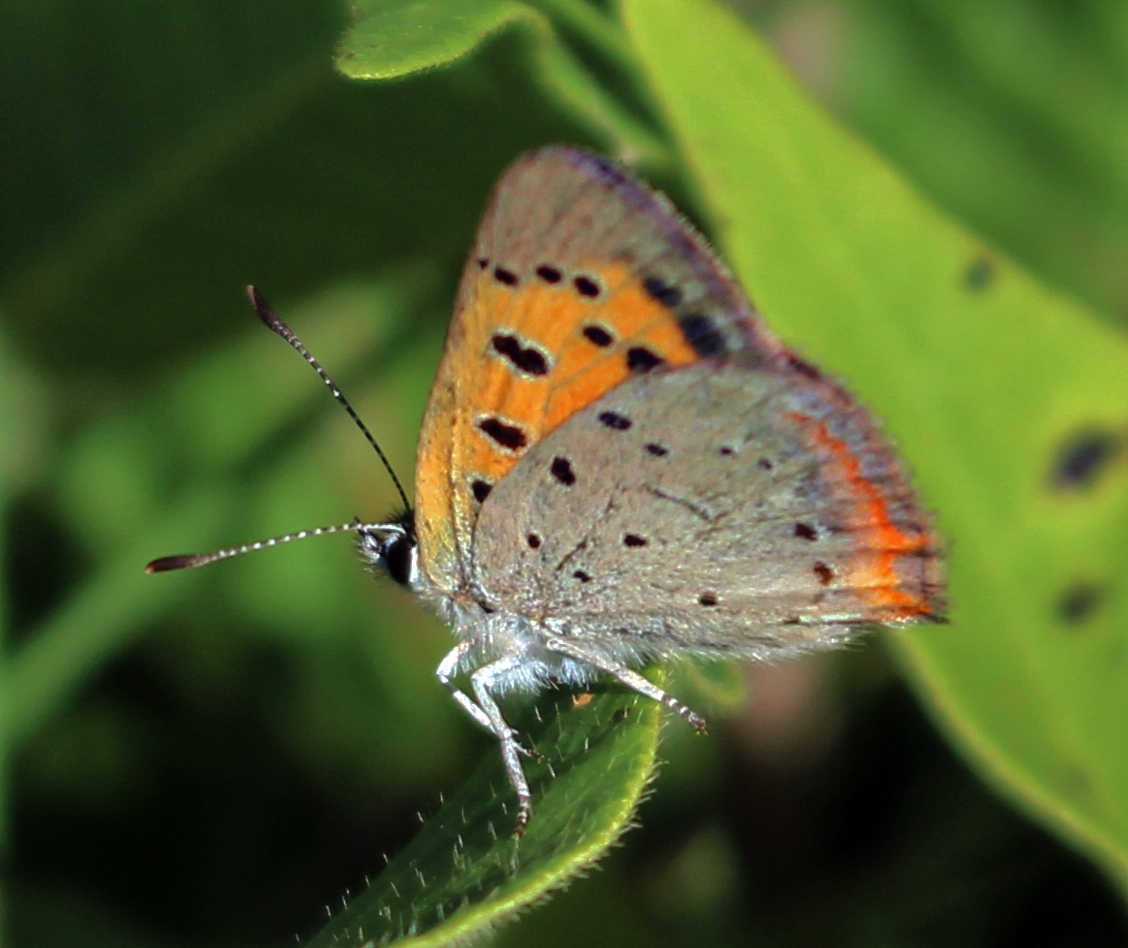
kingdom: Animalia
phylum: Arthropoda
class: Insecta
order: Lepidoptera
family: Lycaenidae
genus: Lycaena
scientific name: Lycaena hypophlaeas
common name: American copper
